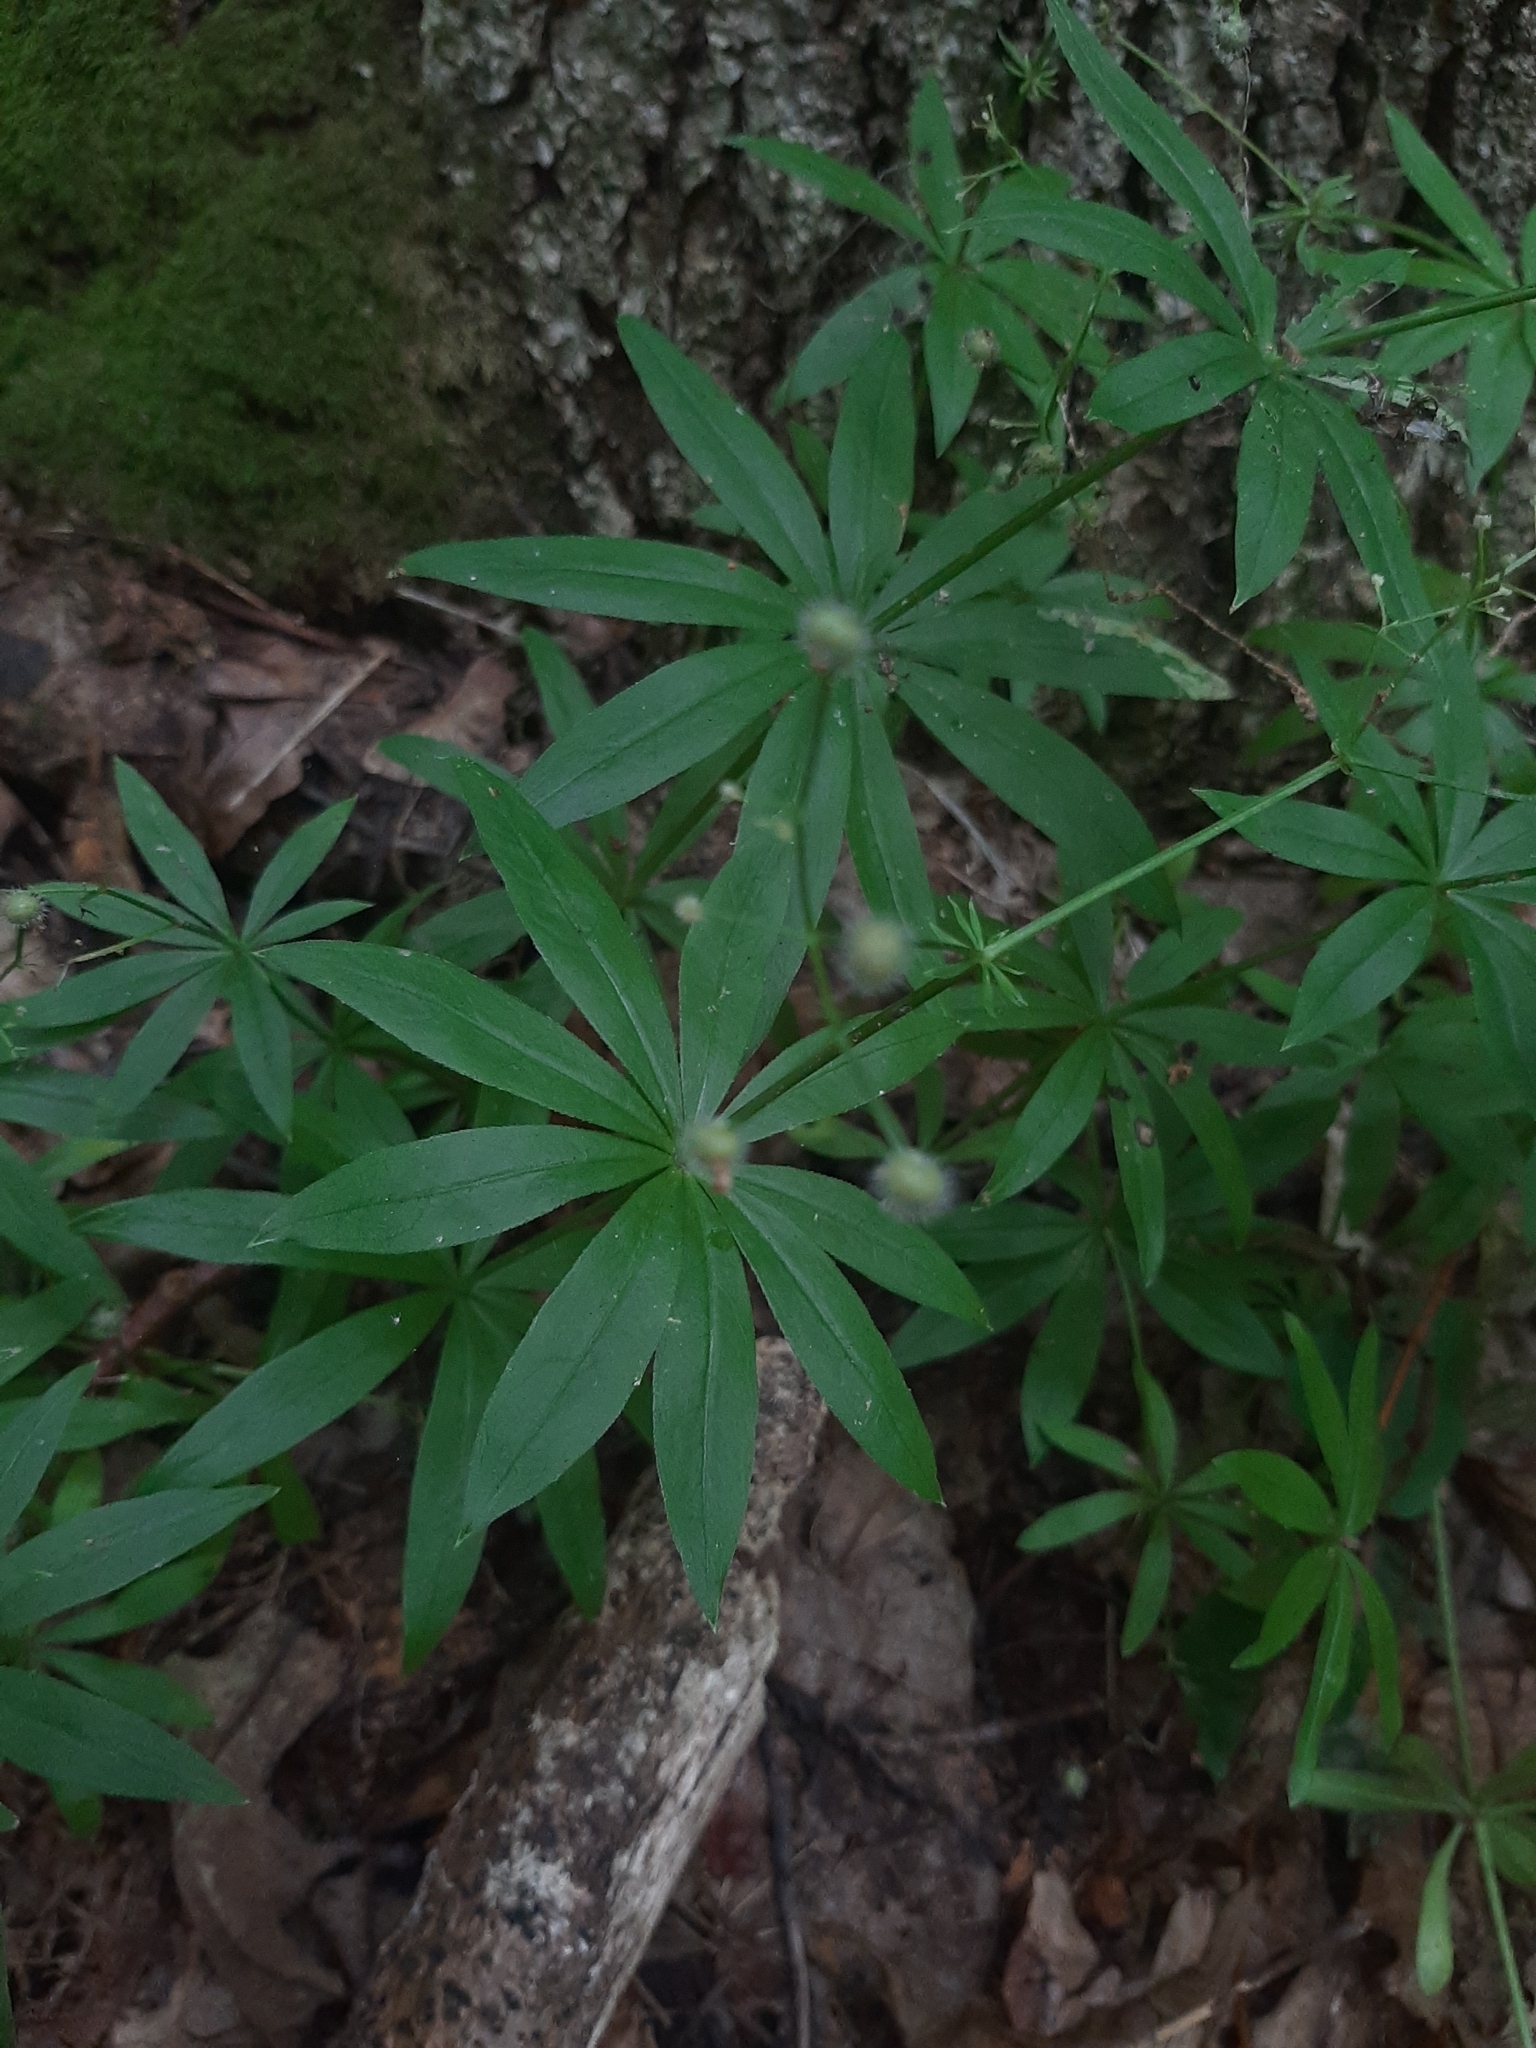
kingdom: Plantae
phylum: Tracheophyta
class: Magnoliopsida
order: Gentianales
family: Rubiaceae
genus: Galium
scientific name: Galium odoratum
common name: Sweet woodruff
